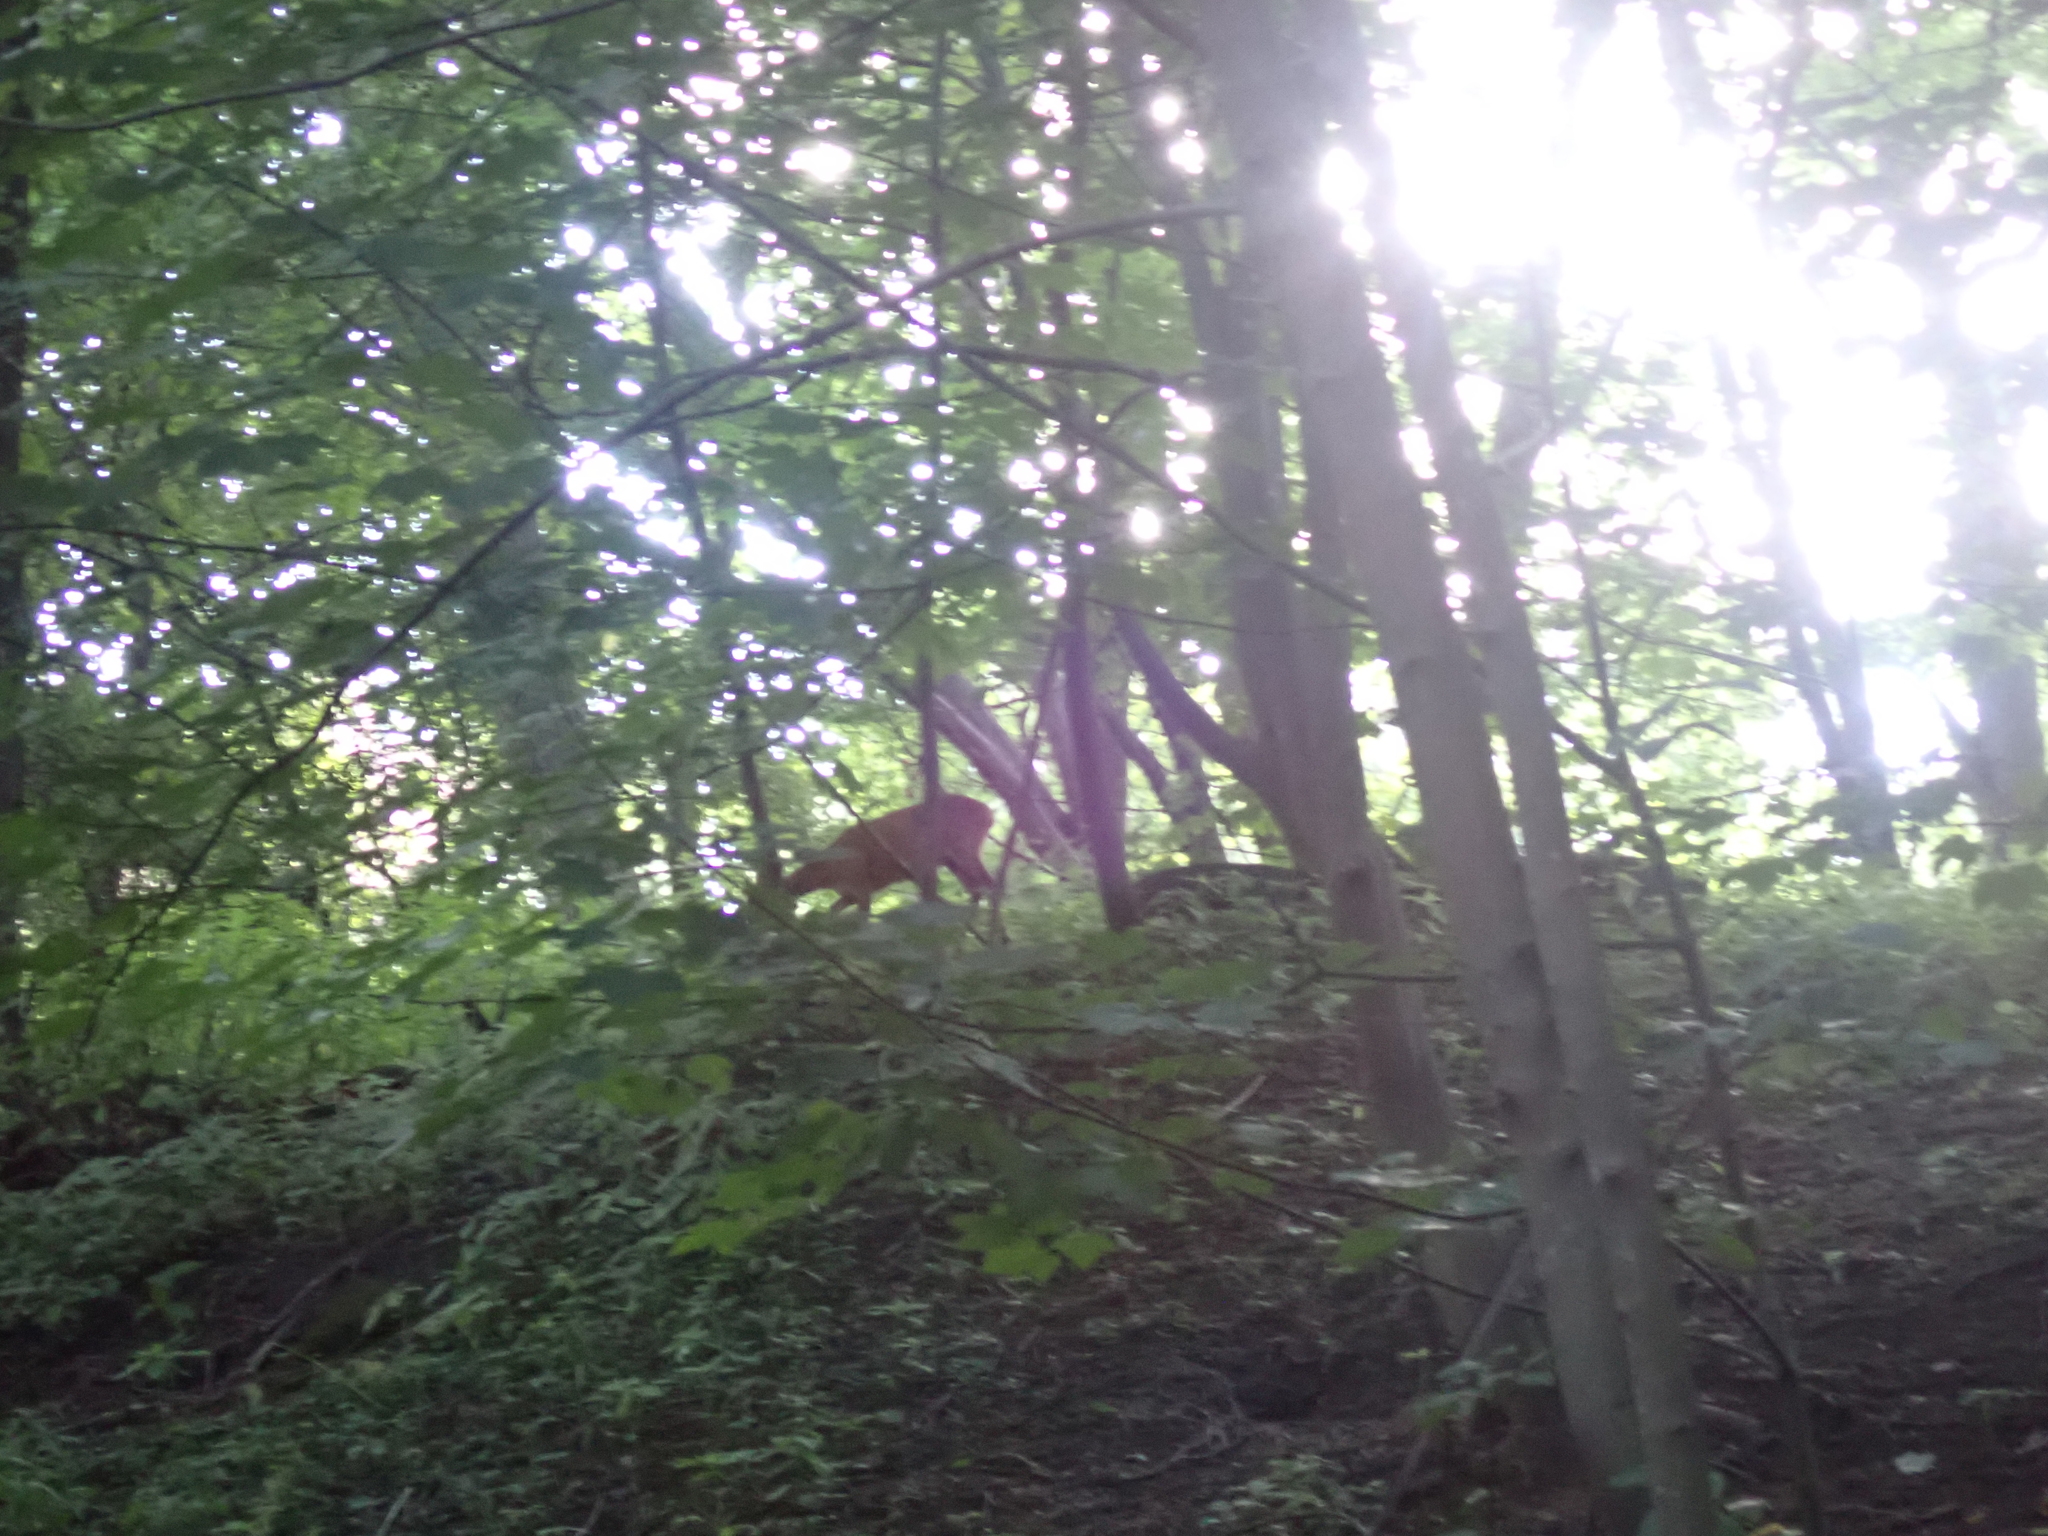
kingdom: Animalia
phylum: Chordata
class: Mammalia
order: Artiodactyla
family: Cervidae
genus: Capreolus
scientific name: Capreolus capreolus
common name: Western roe deer
